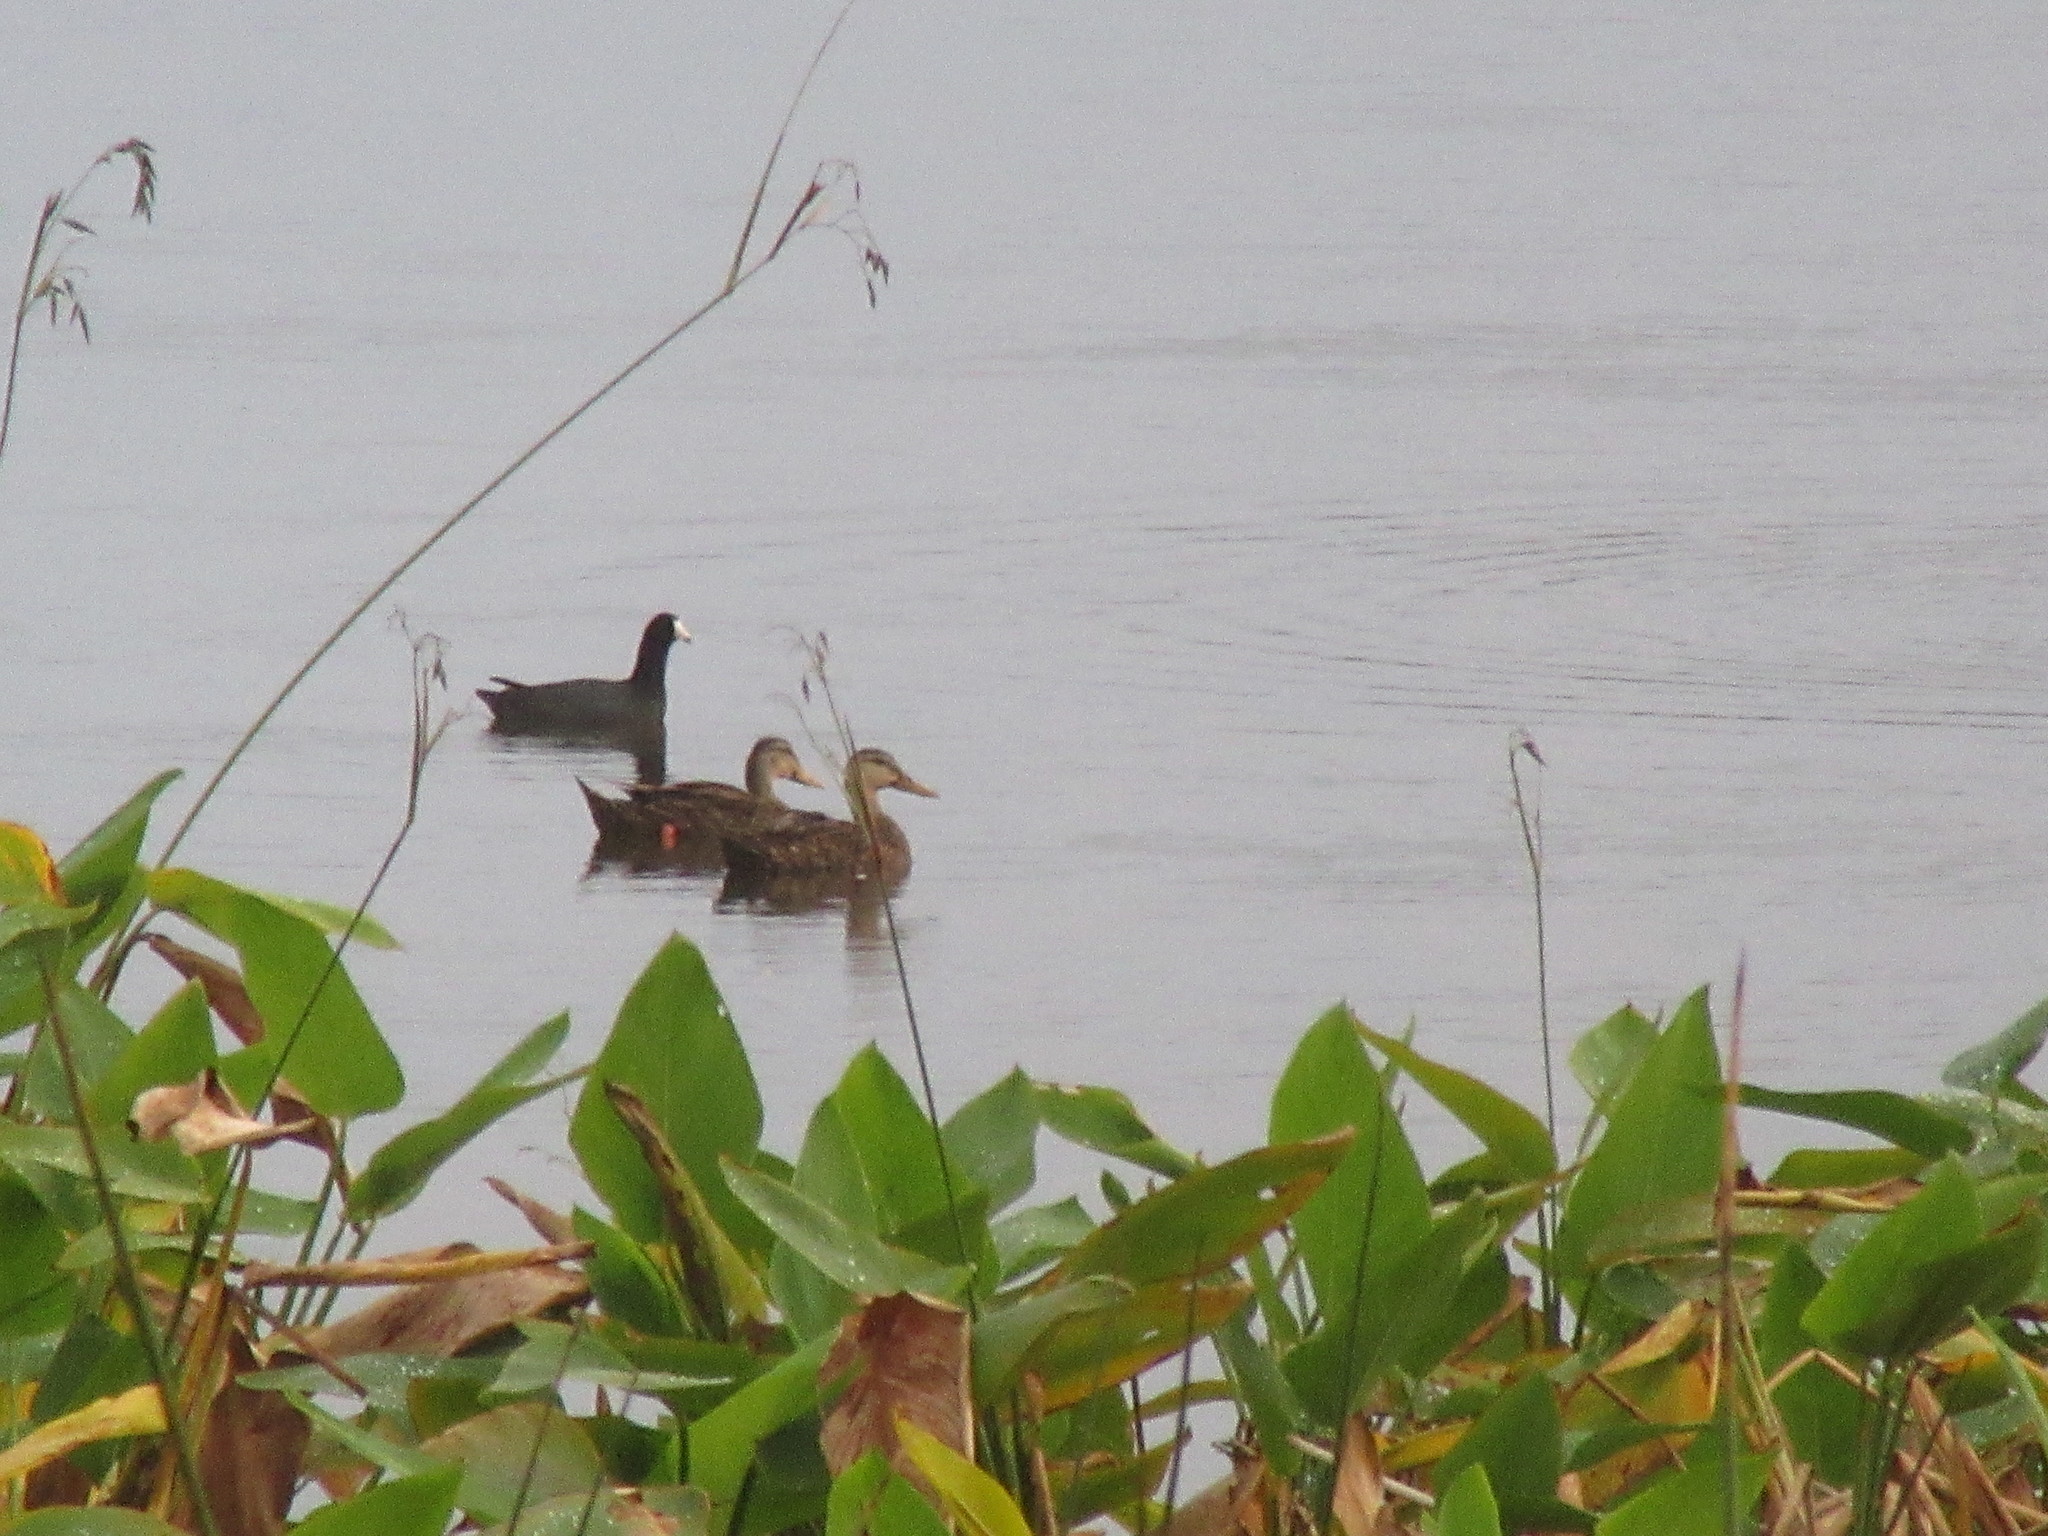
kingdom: Animalia
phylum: Chordata
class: Aves
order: Anseriformes
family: Anatidae
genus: Anas
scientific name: Anas fulvigula
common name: Mottled duck
